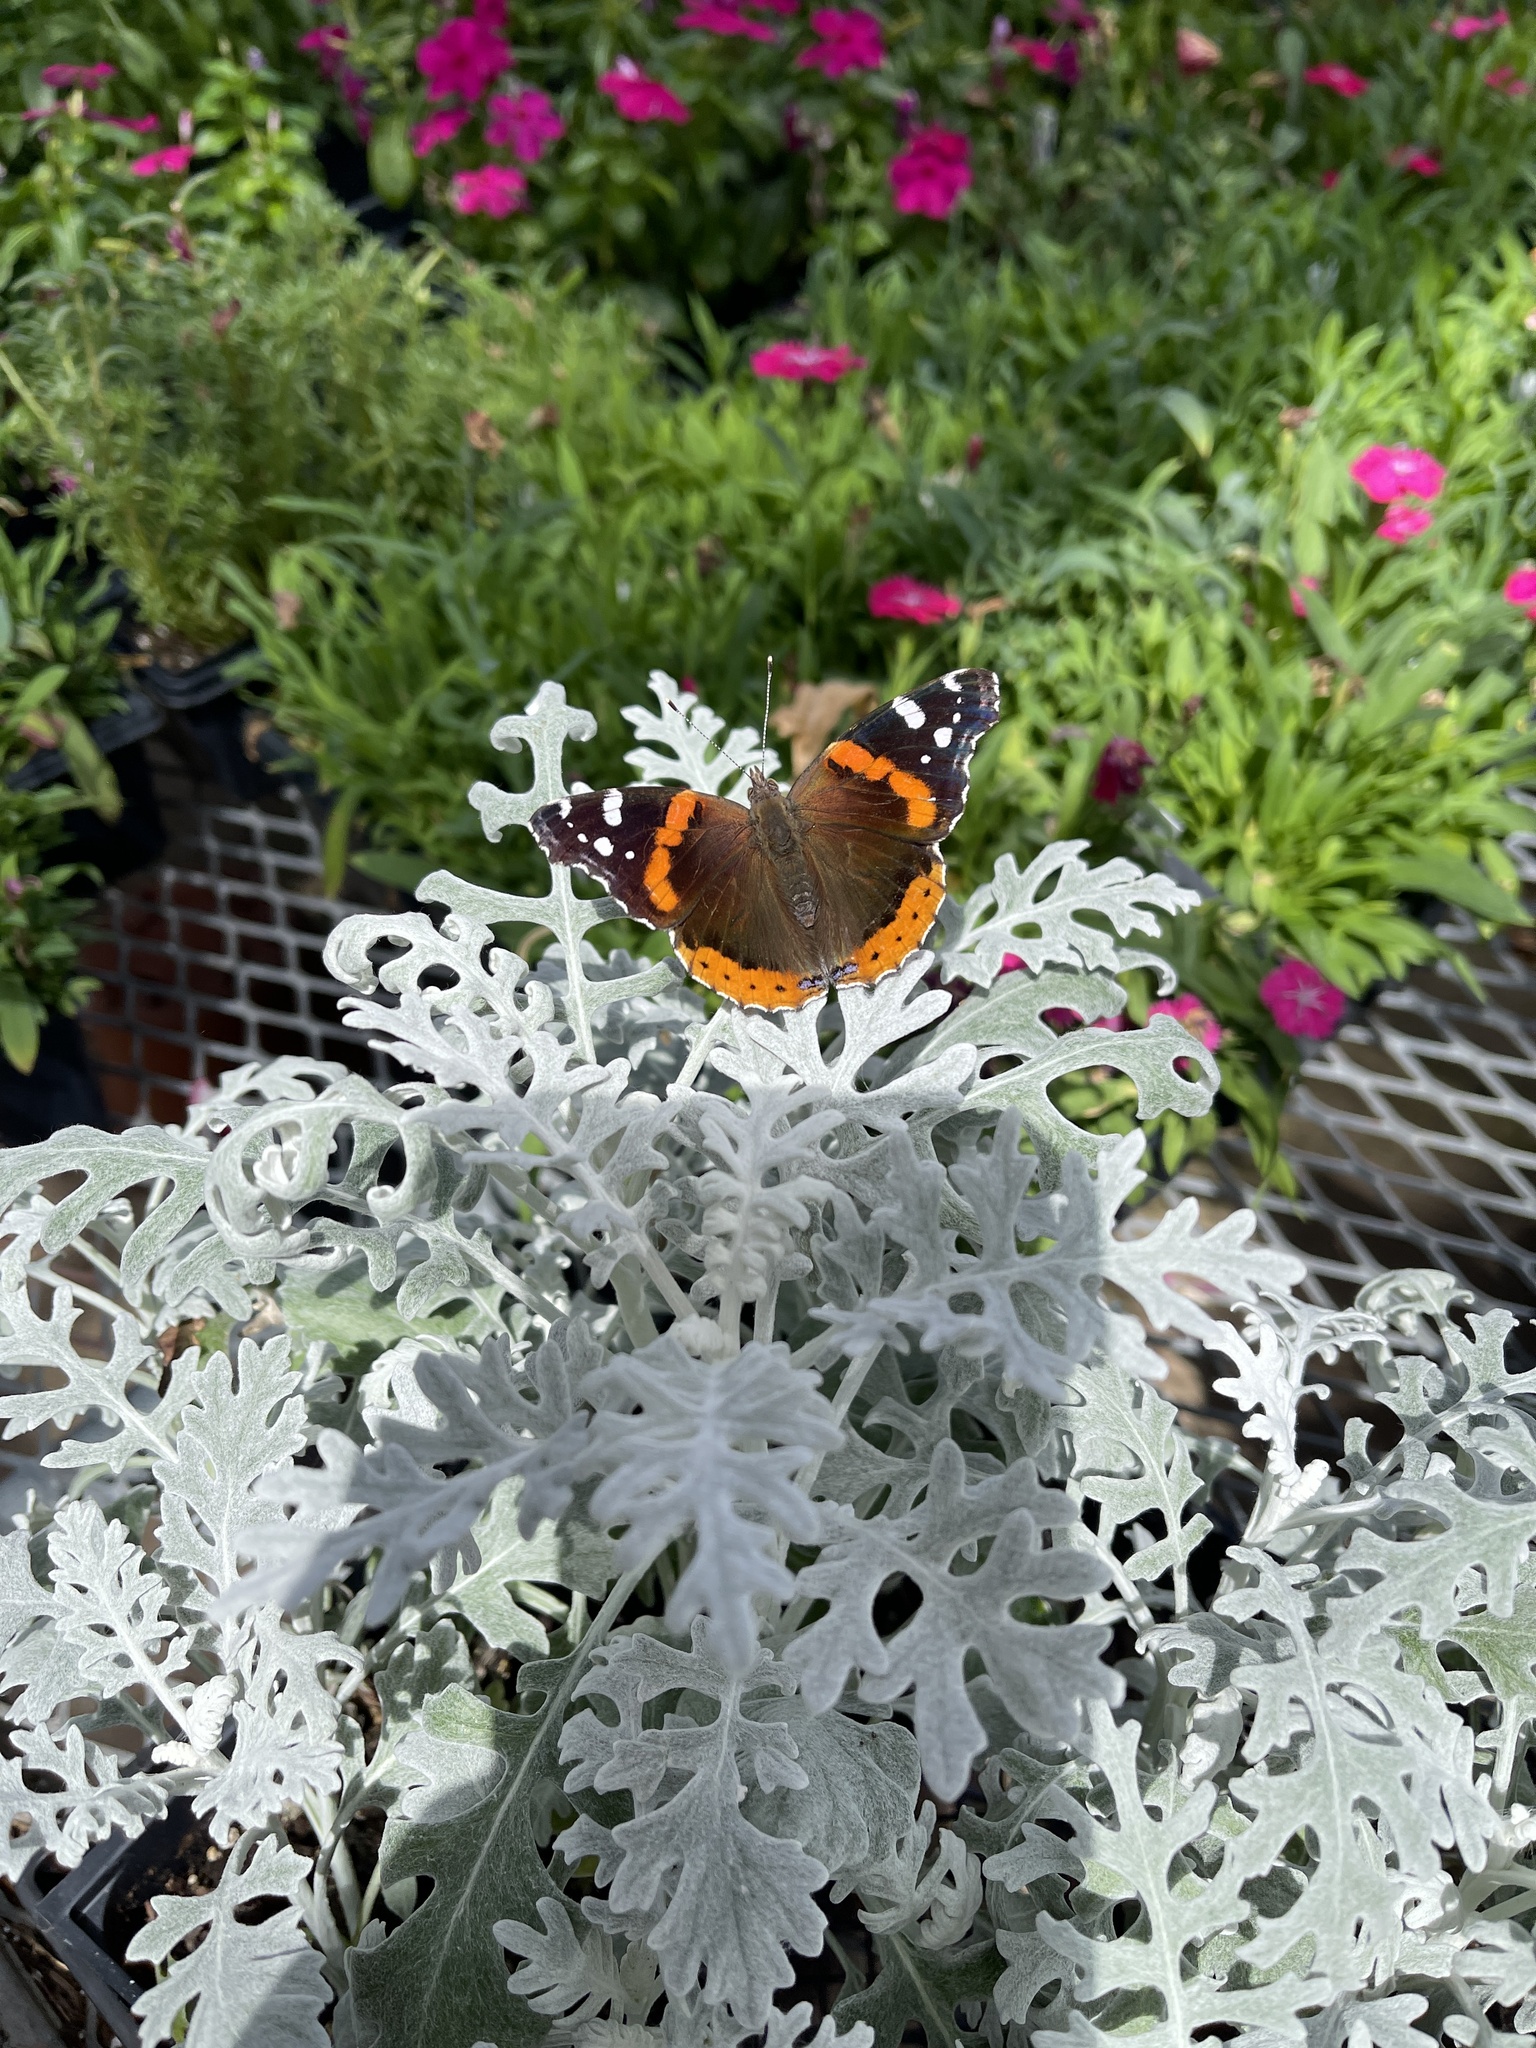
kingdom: Animalia
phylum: Arthropoda
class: Insecta
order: Lepidoptera
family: Nymphalidae
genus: Vanessa
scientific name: Vanessa atalanta
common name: Red admiral
